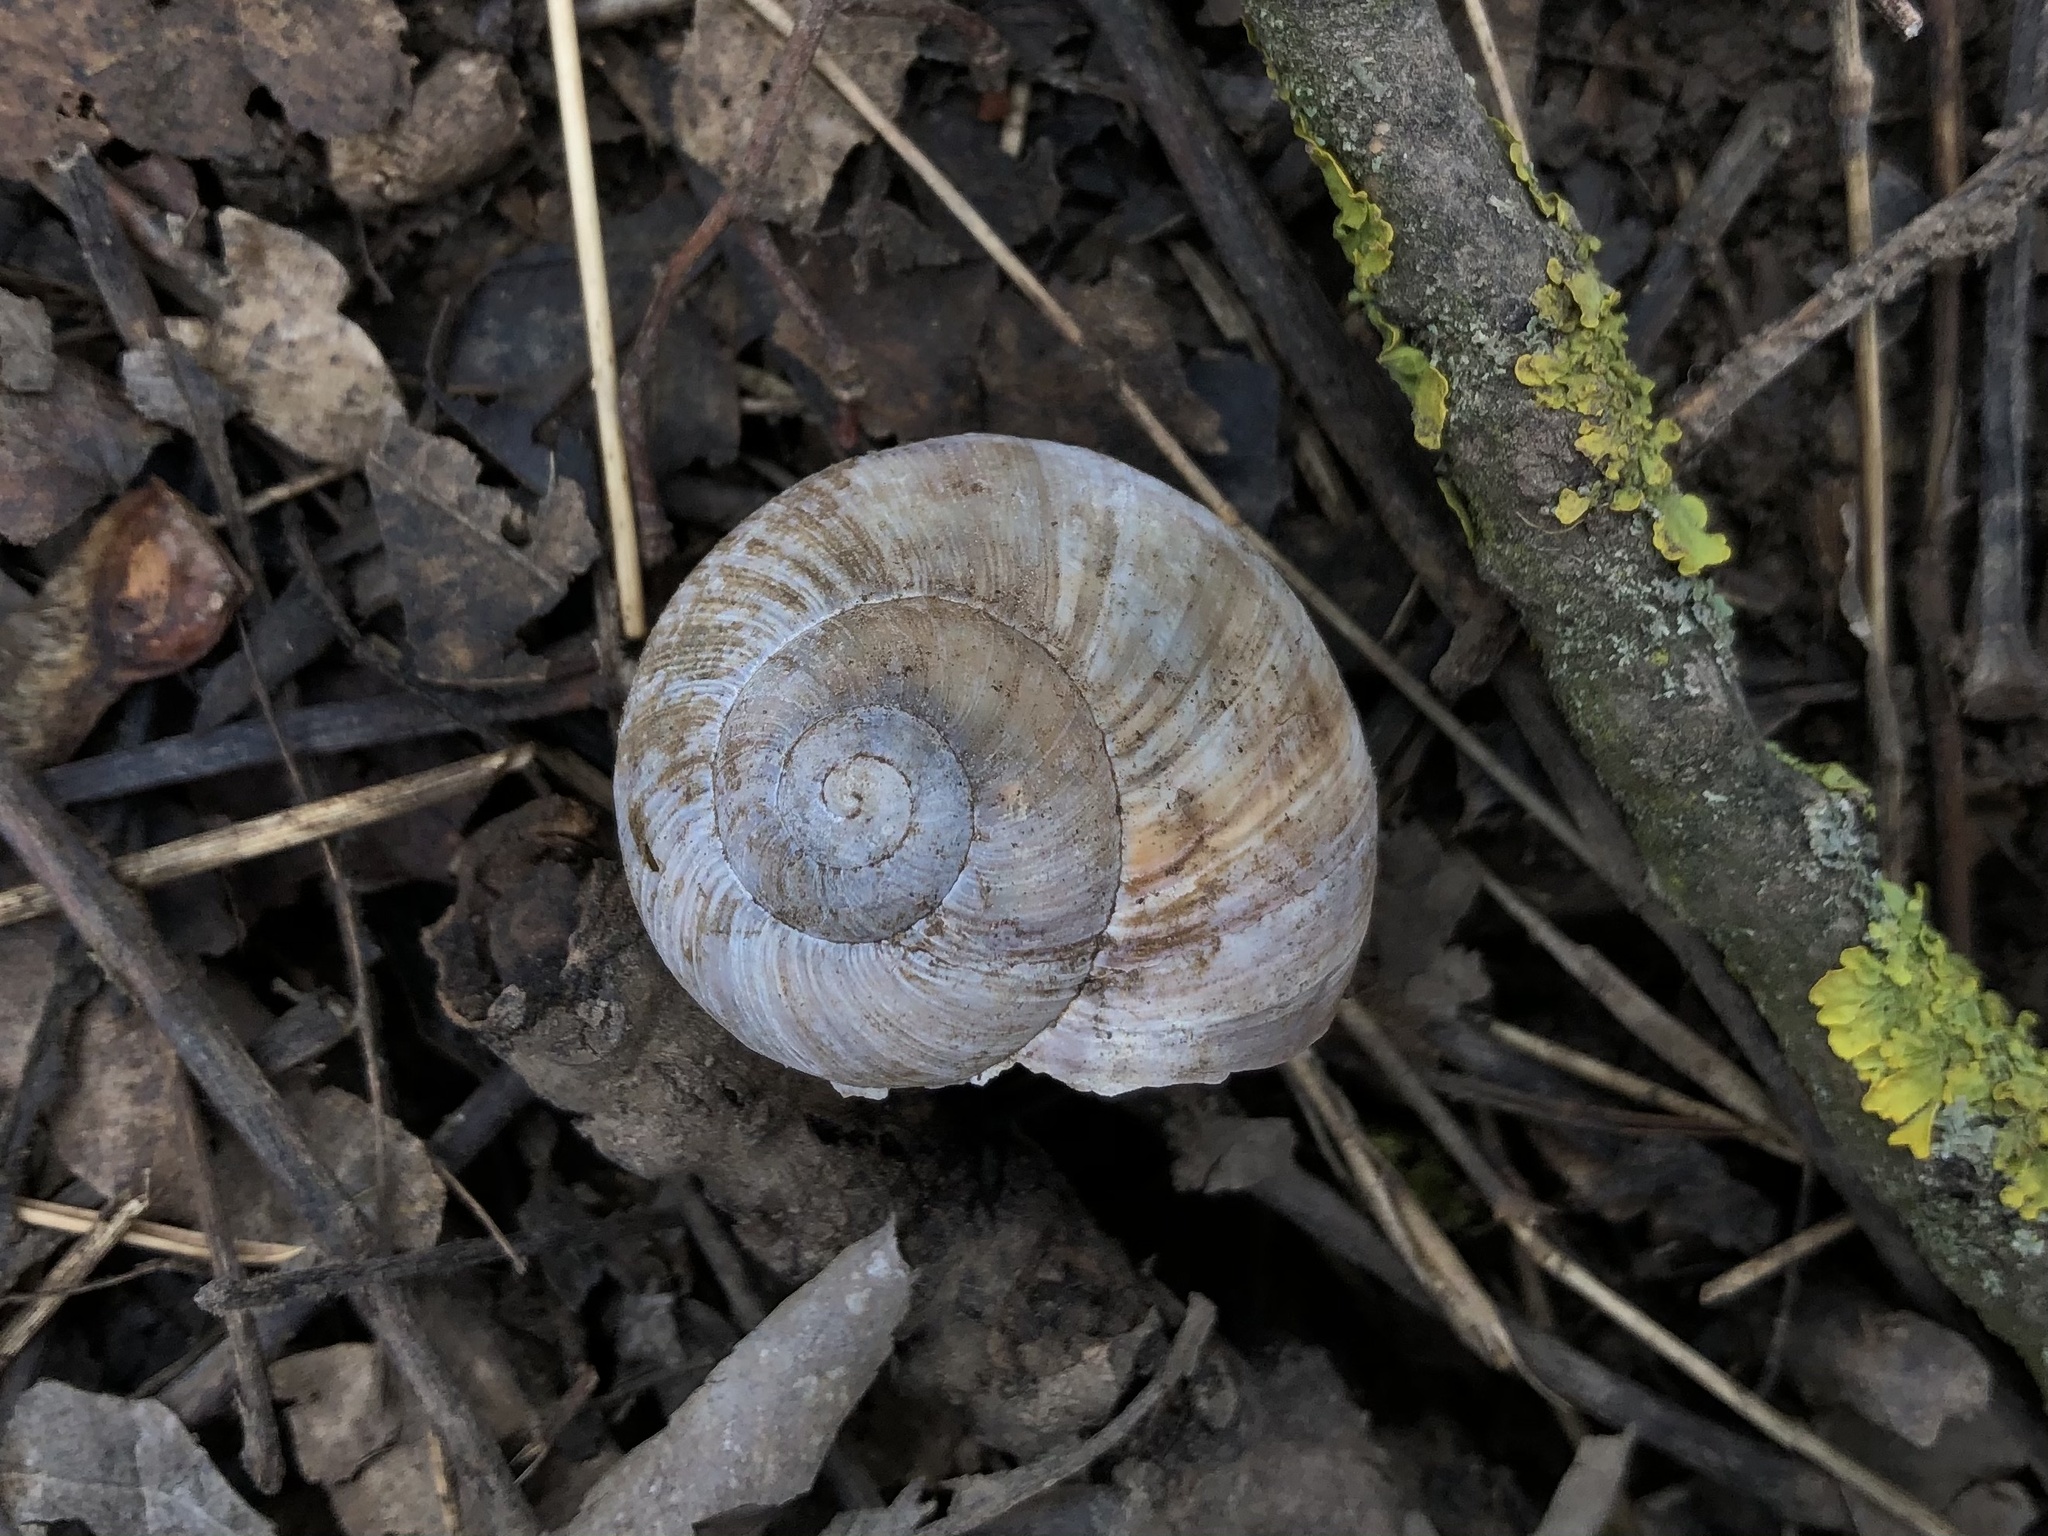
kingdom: Animalia
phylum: Mollusca
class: Gastropoda
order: Stylommatophora
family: Helicidae
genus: Helix
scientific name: Helix pomatia
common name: Roman snail
